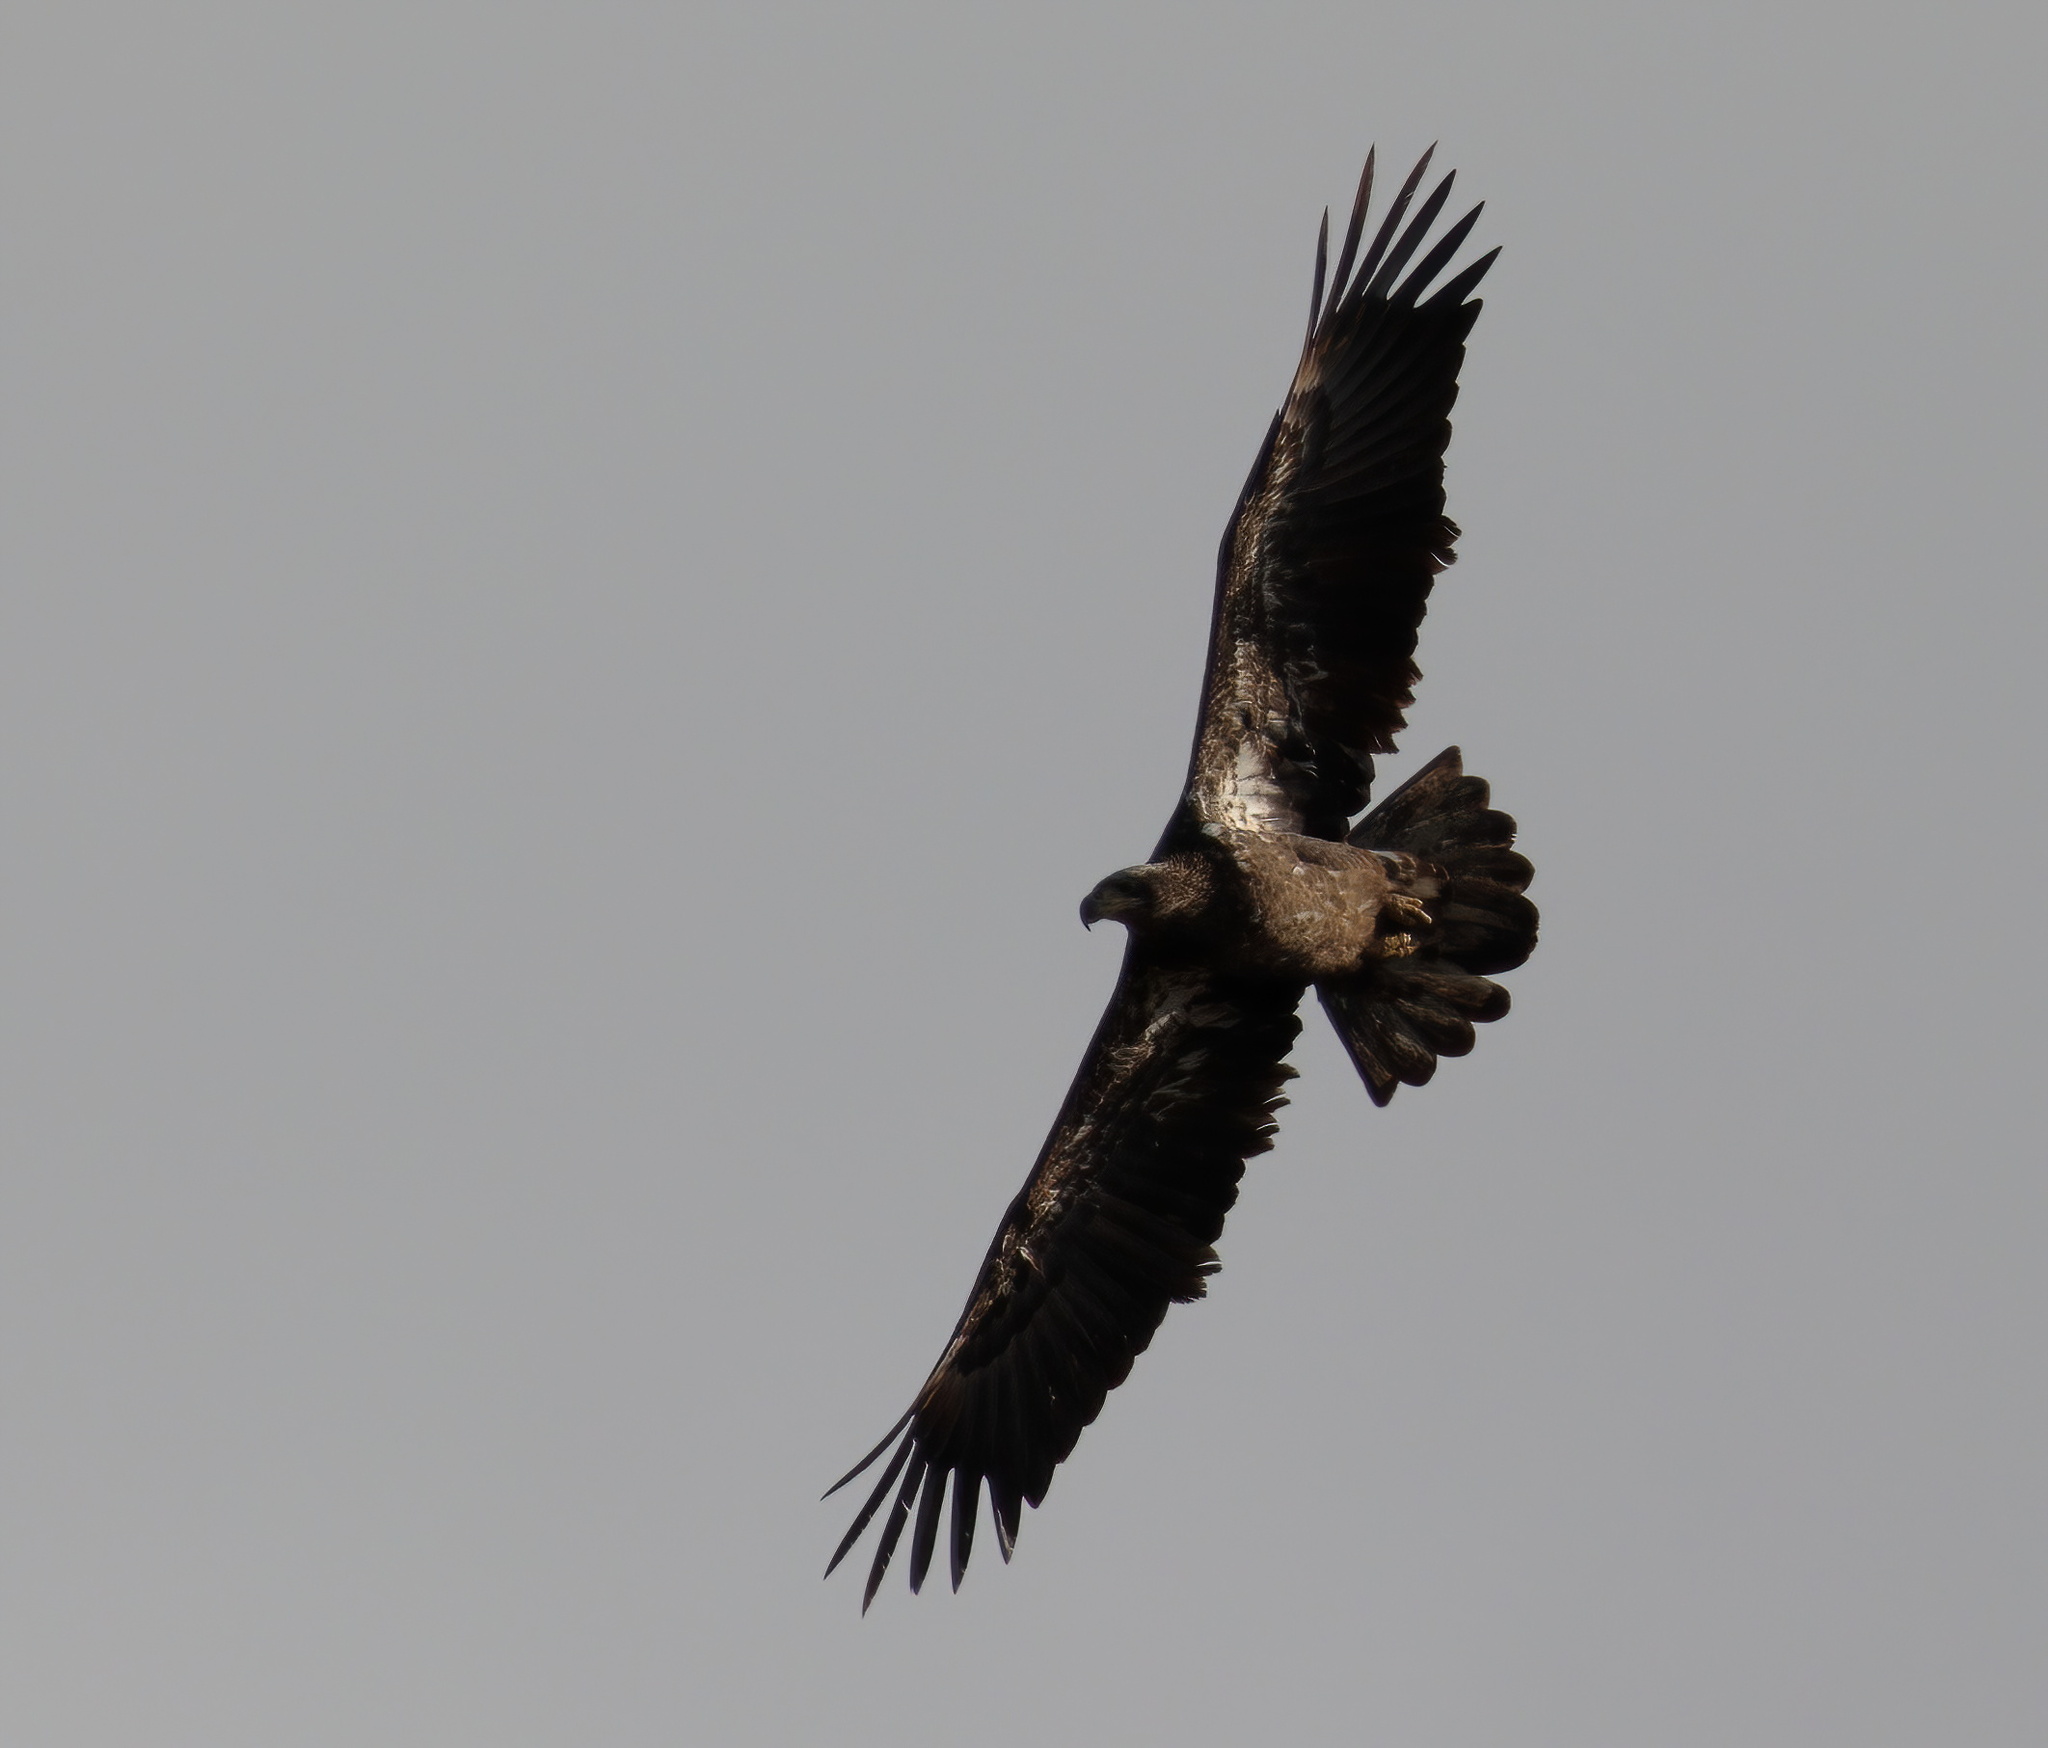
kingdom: Animalia
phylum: Chordata
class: Aves
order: Accipitriformes
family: Accipitridae
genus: Haliaeetus
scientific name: Haliaeetus leucocephalus
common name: Bald eagle
